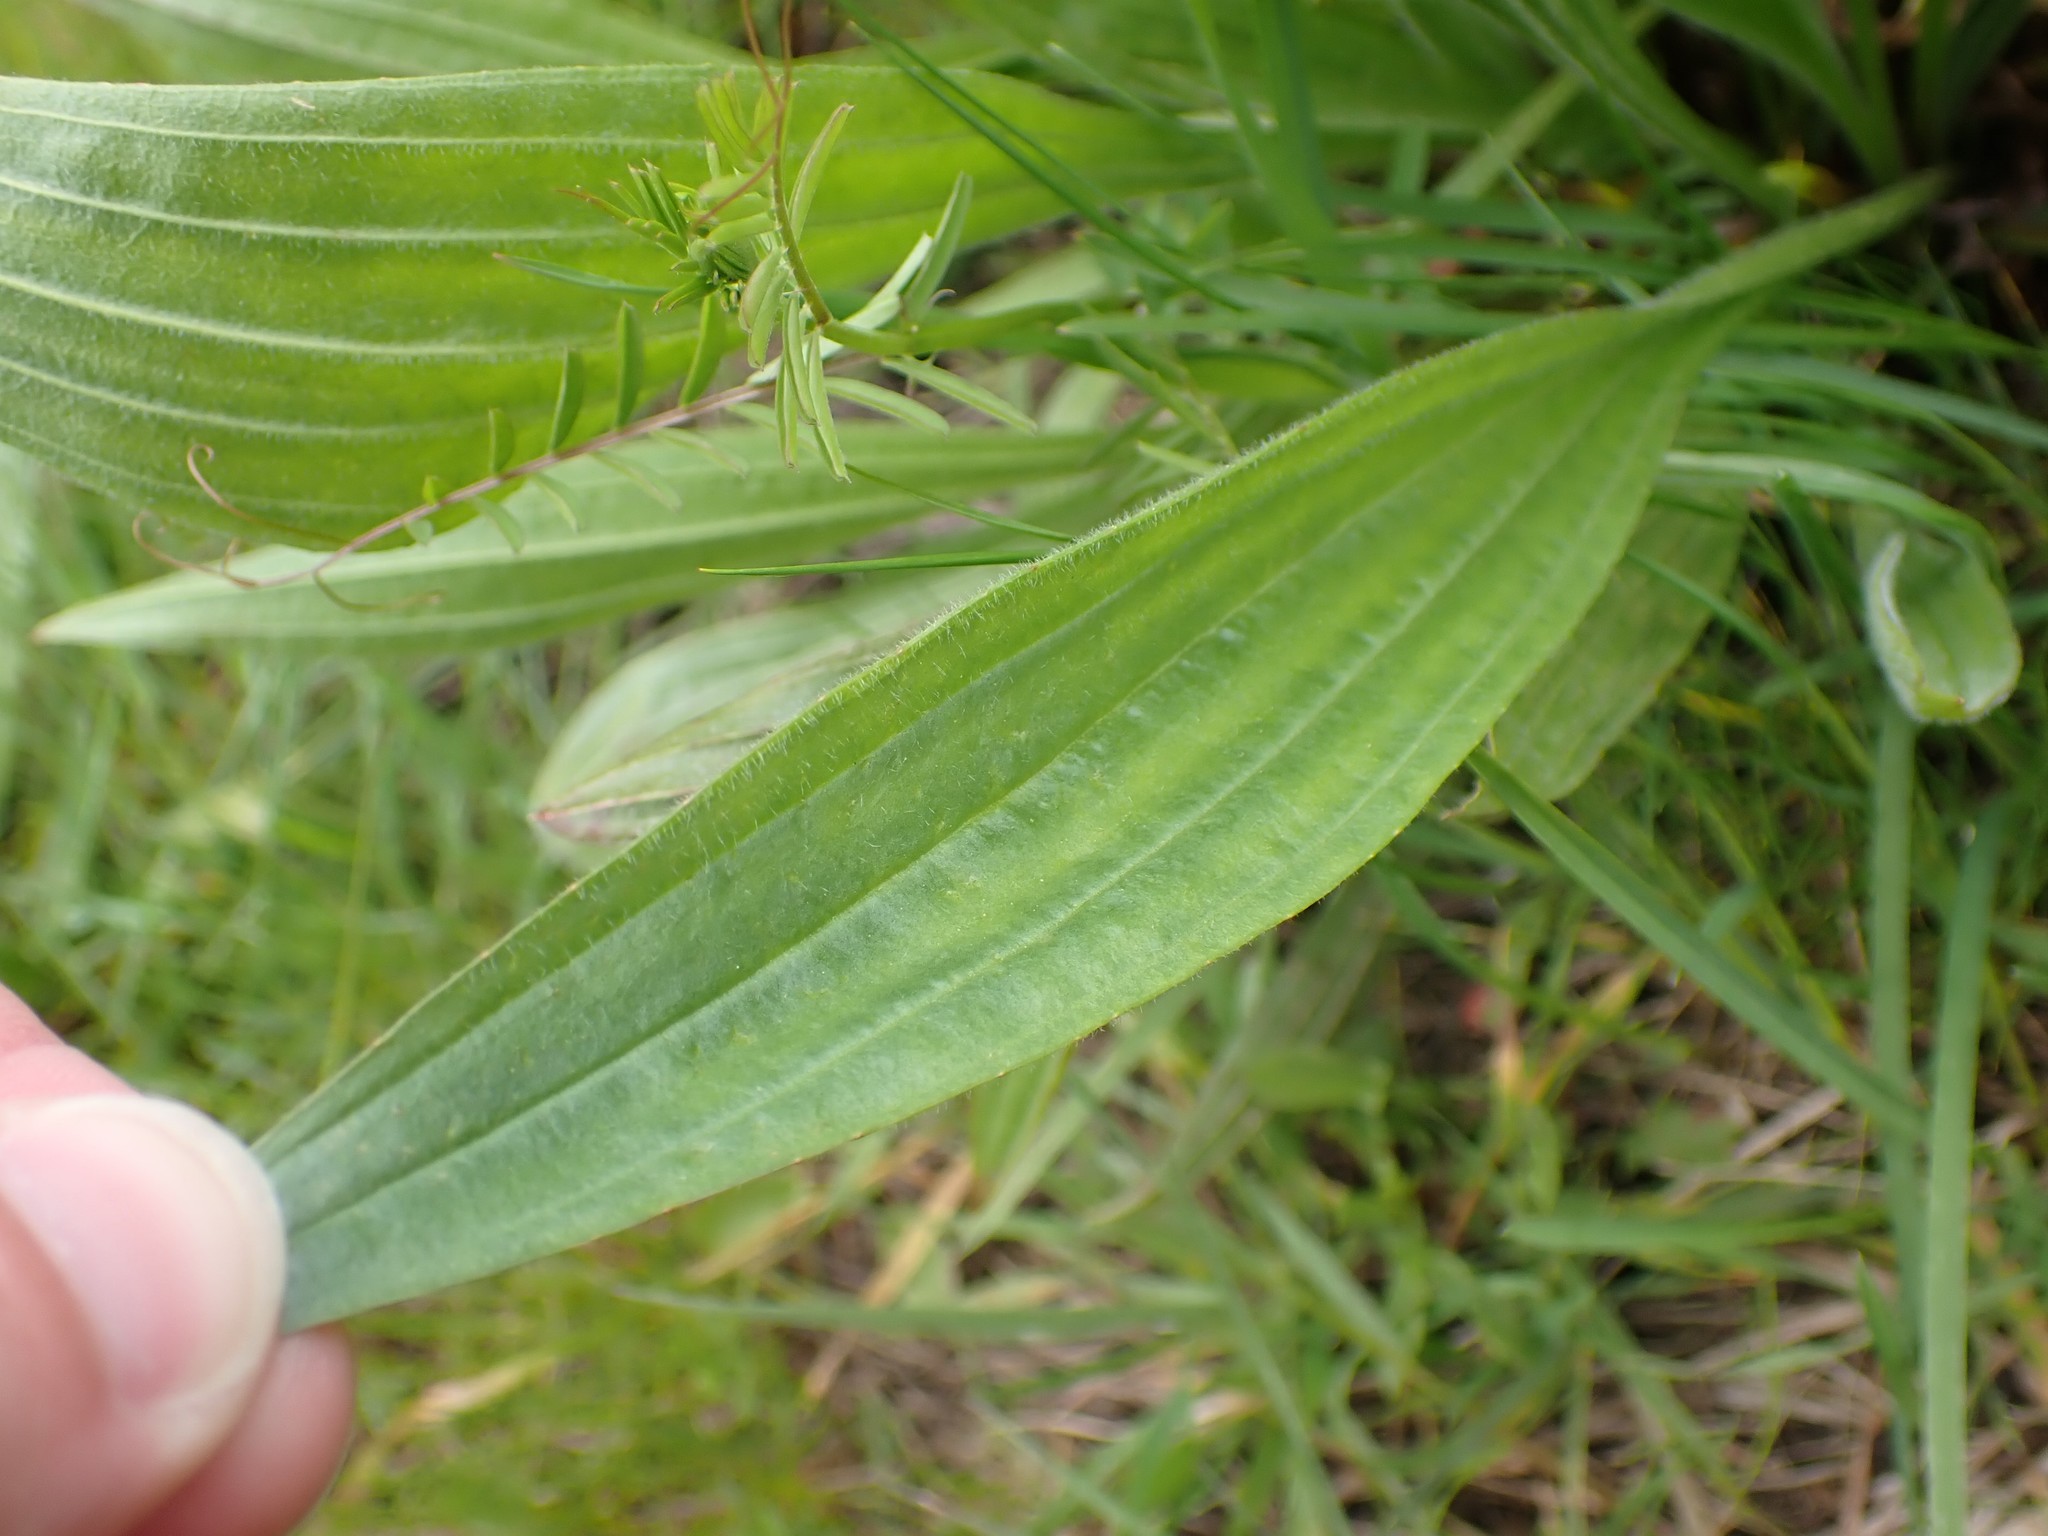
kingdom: Plantae
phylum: Tracheophyta
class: Magnoliopsida
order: Lamiales
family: Plantaginaceae
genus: Plantago
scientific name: Plantago lanceolata
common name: Ribwort plantain
